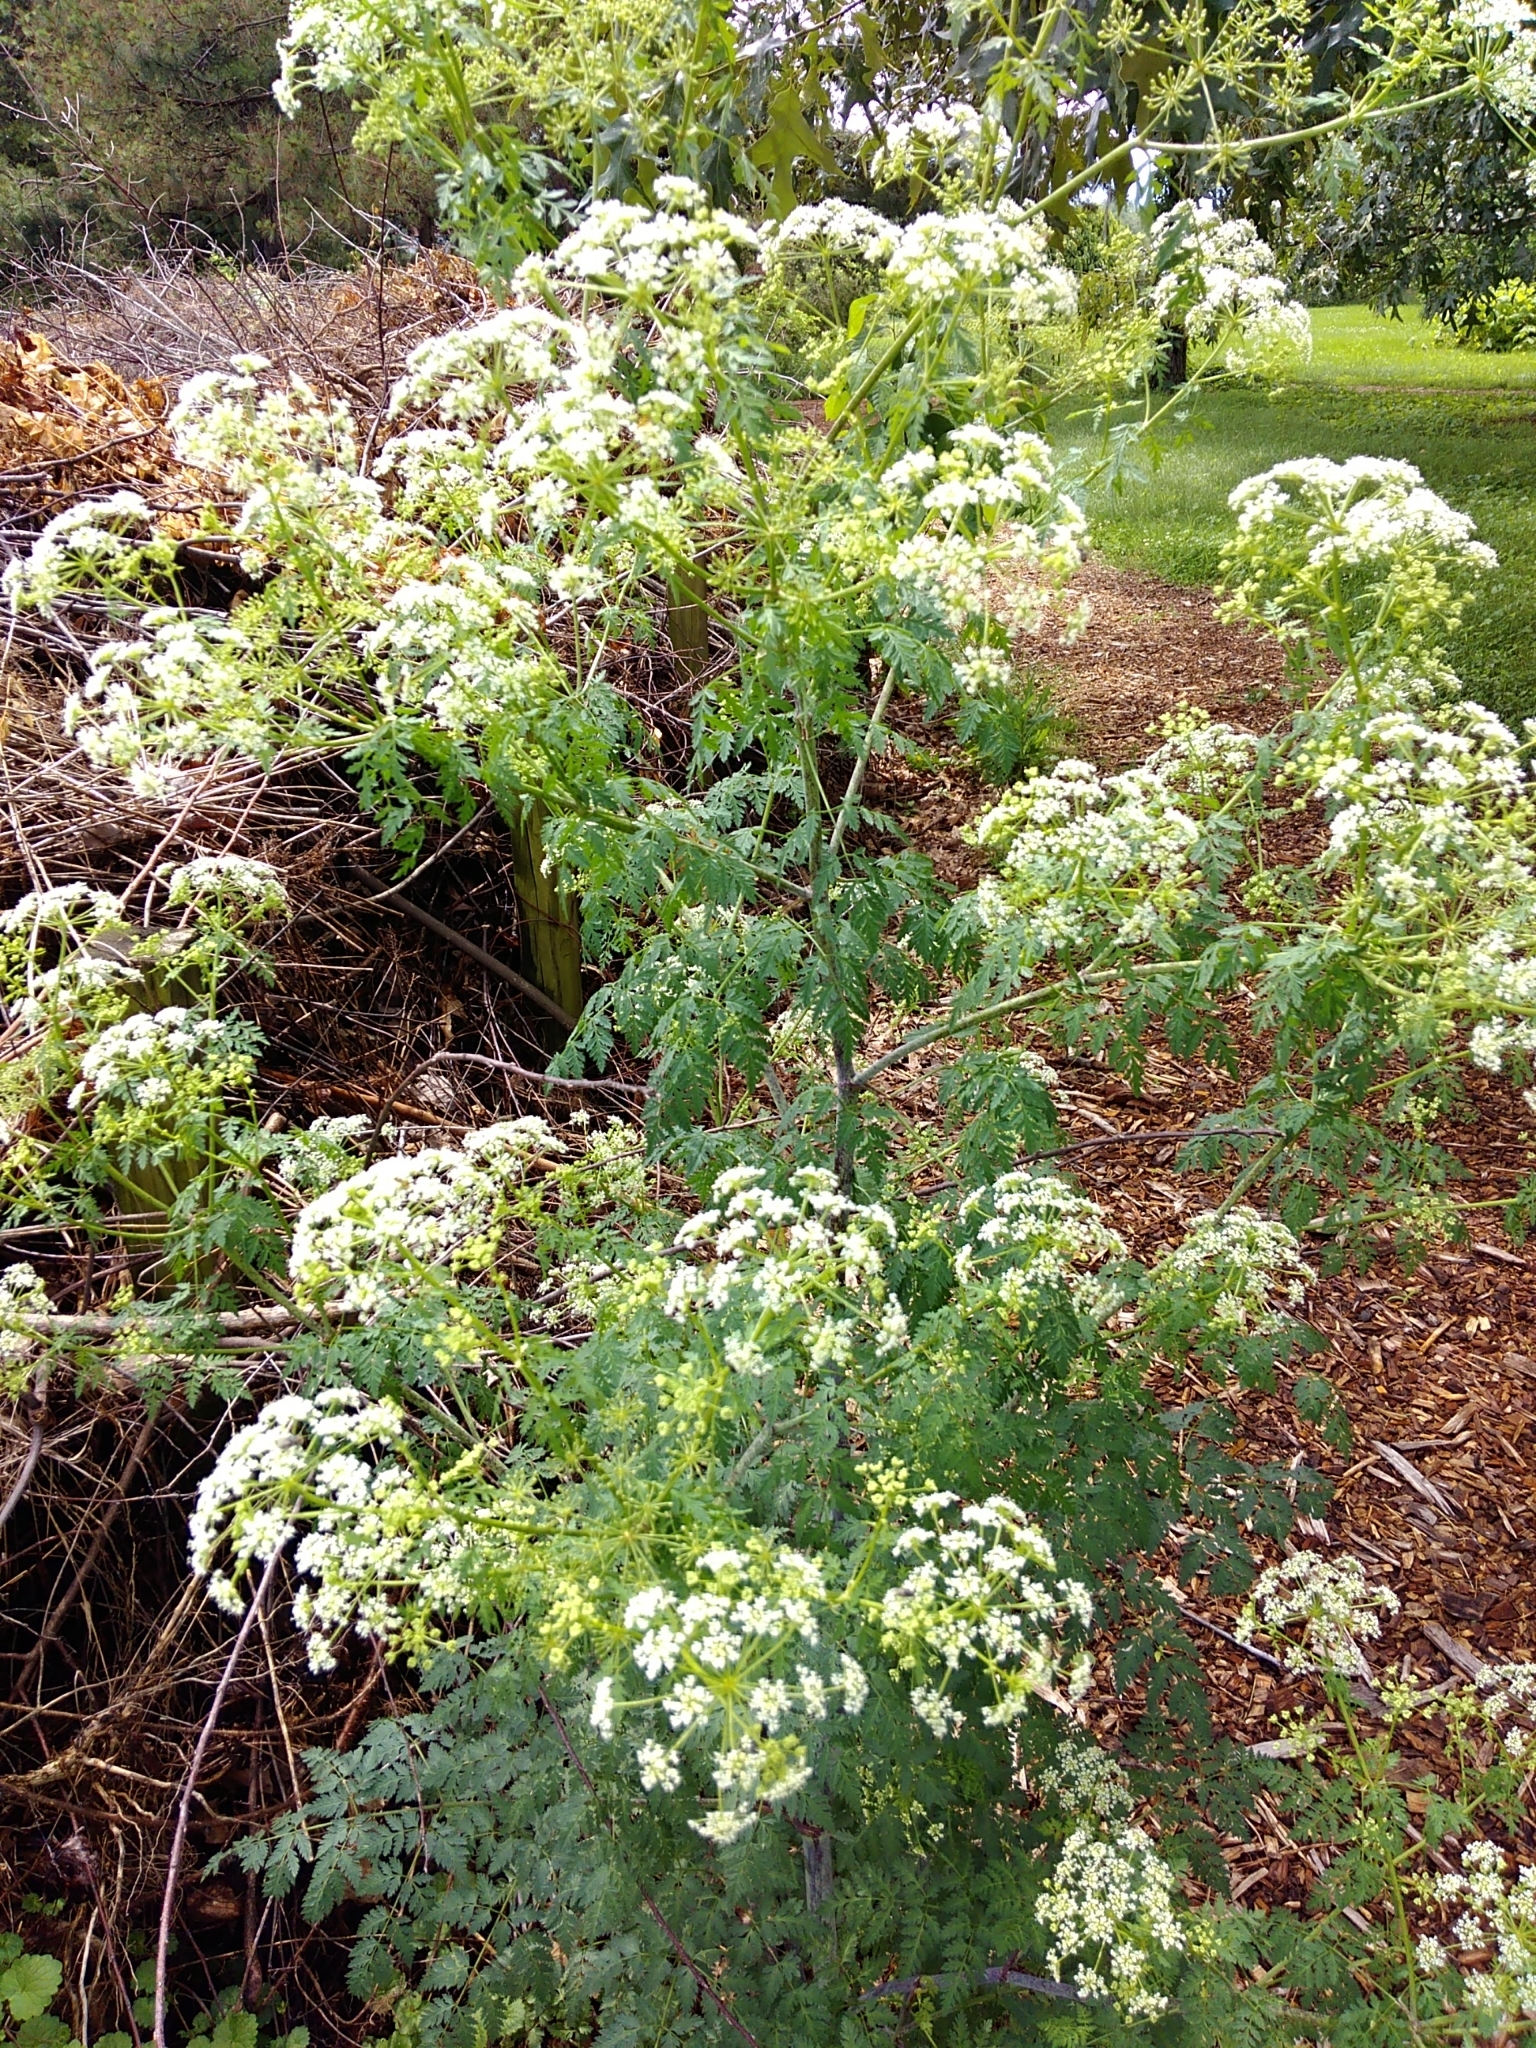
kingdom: Plantae
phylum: Tracheophyta
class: Magnoliopsida
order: Apiales
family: Apiaceae
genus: Conium
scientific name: Conium maculatum
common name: Hemlock
